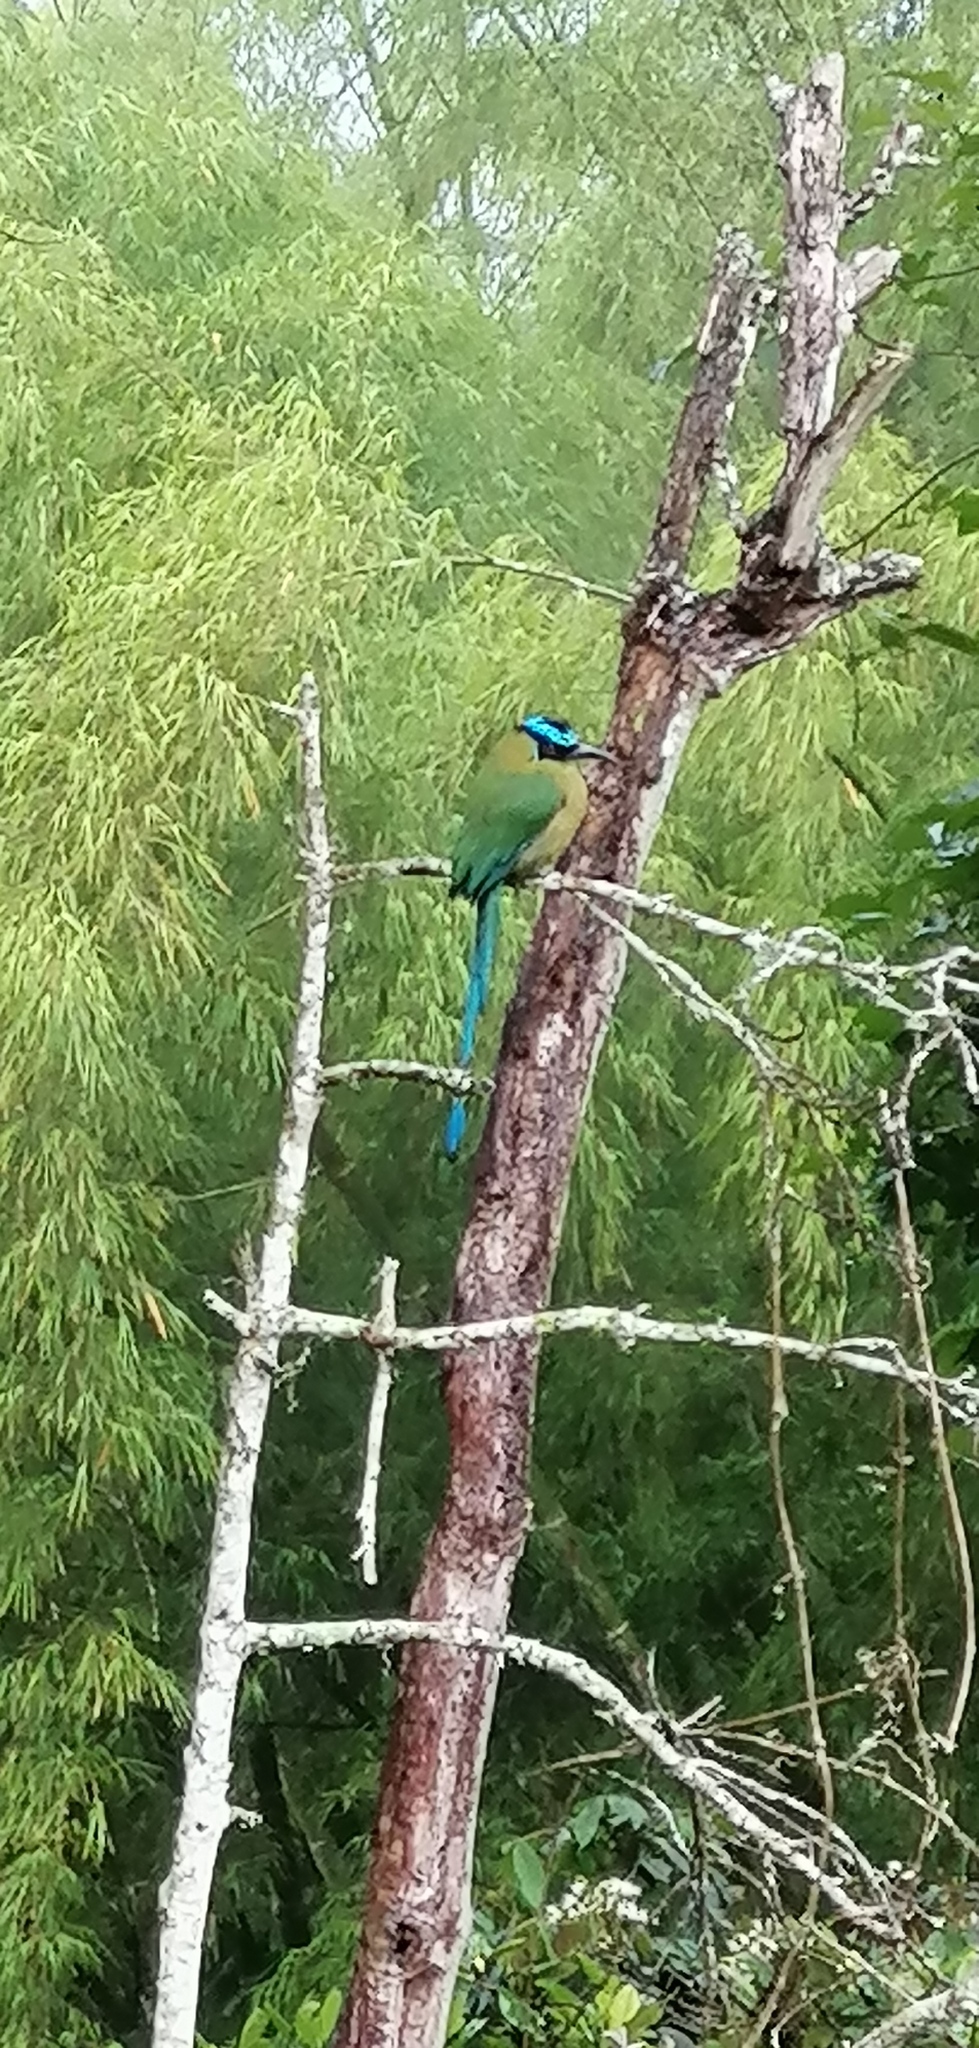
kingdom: Animalia
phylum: Chordata
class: Aves
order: Coraciiformes
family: Momotidae
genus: Momotus
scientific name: Momotus aequatorialis
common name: Andean motmot
